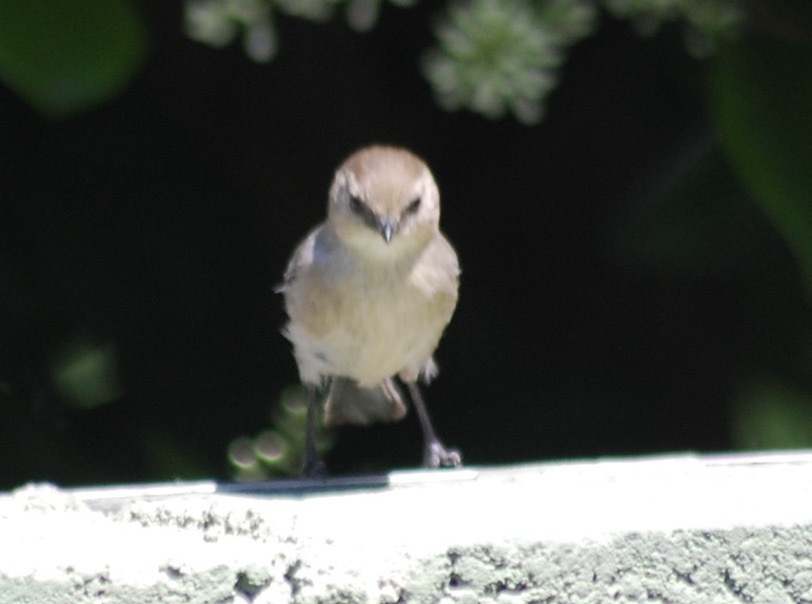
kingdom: Animalia
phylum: Chordata
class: Aves
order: Passeriformes
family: Aegithalidae
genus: Psaltriparus
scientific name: Psaltriparus minimus
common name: American bushtit
